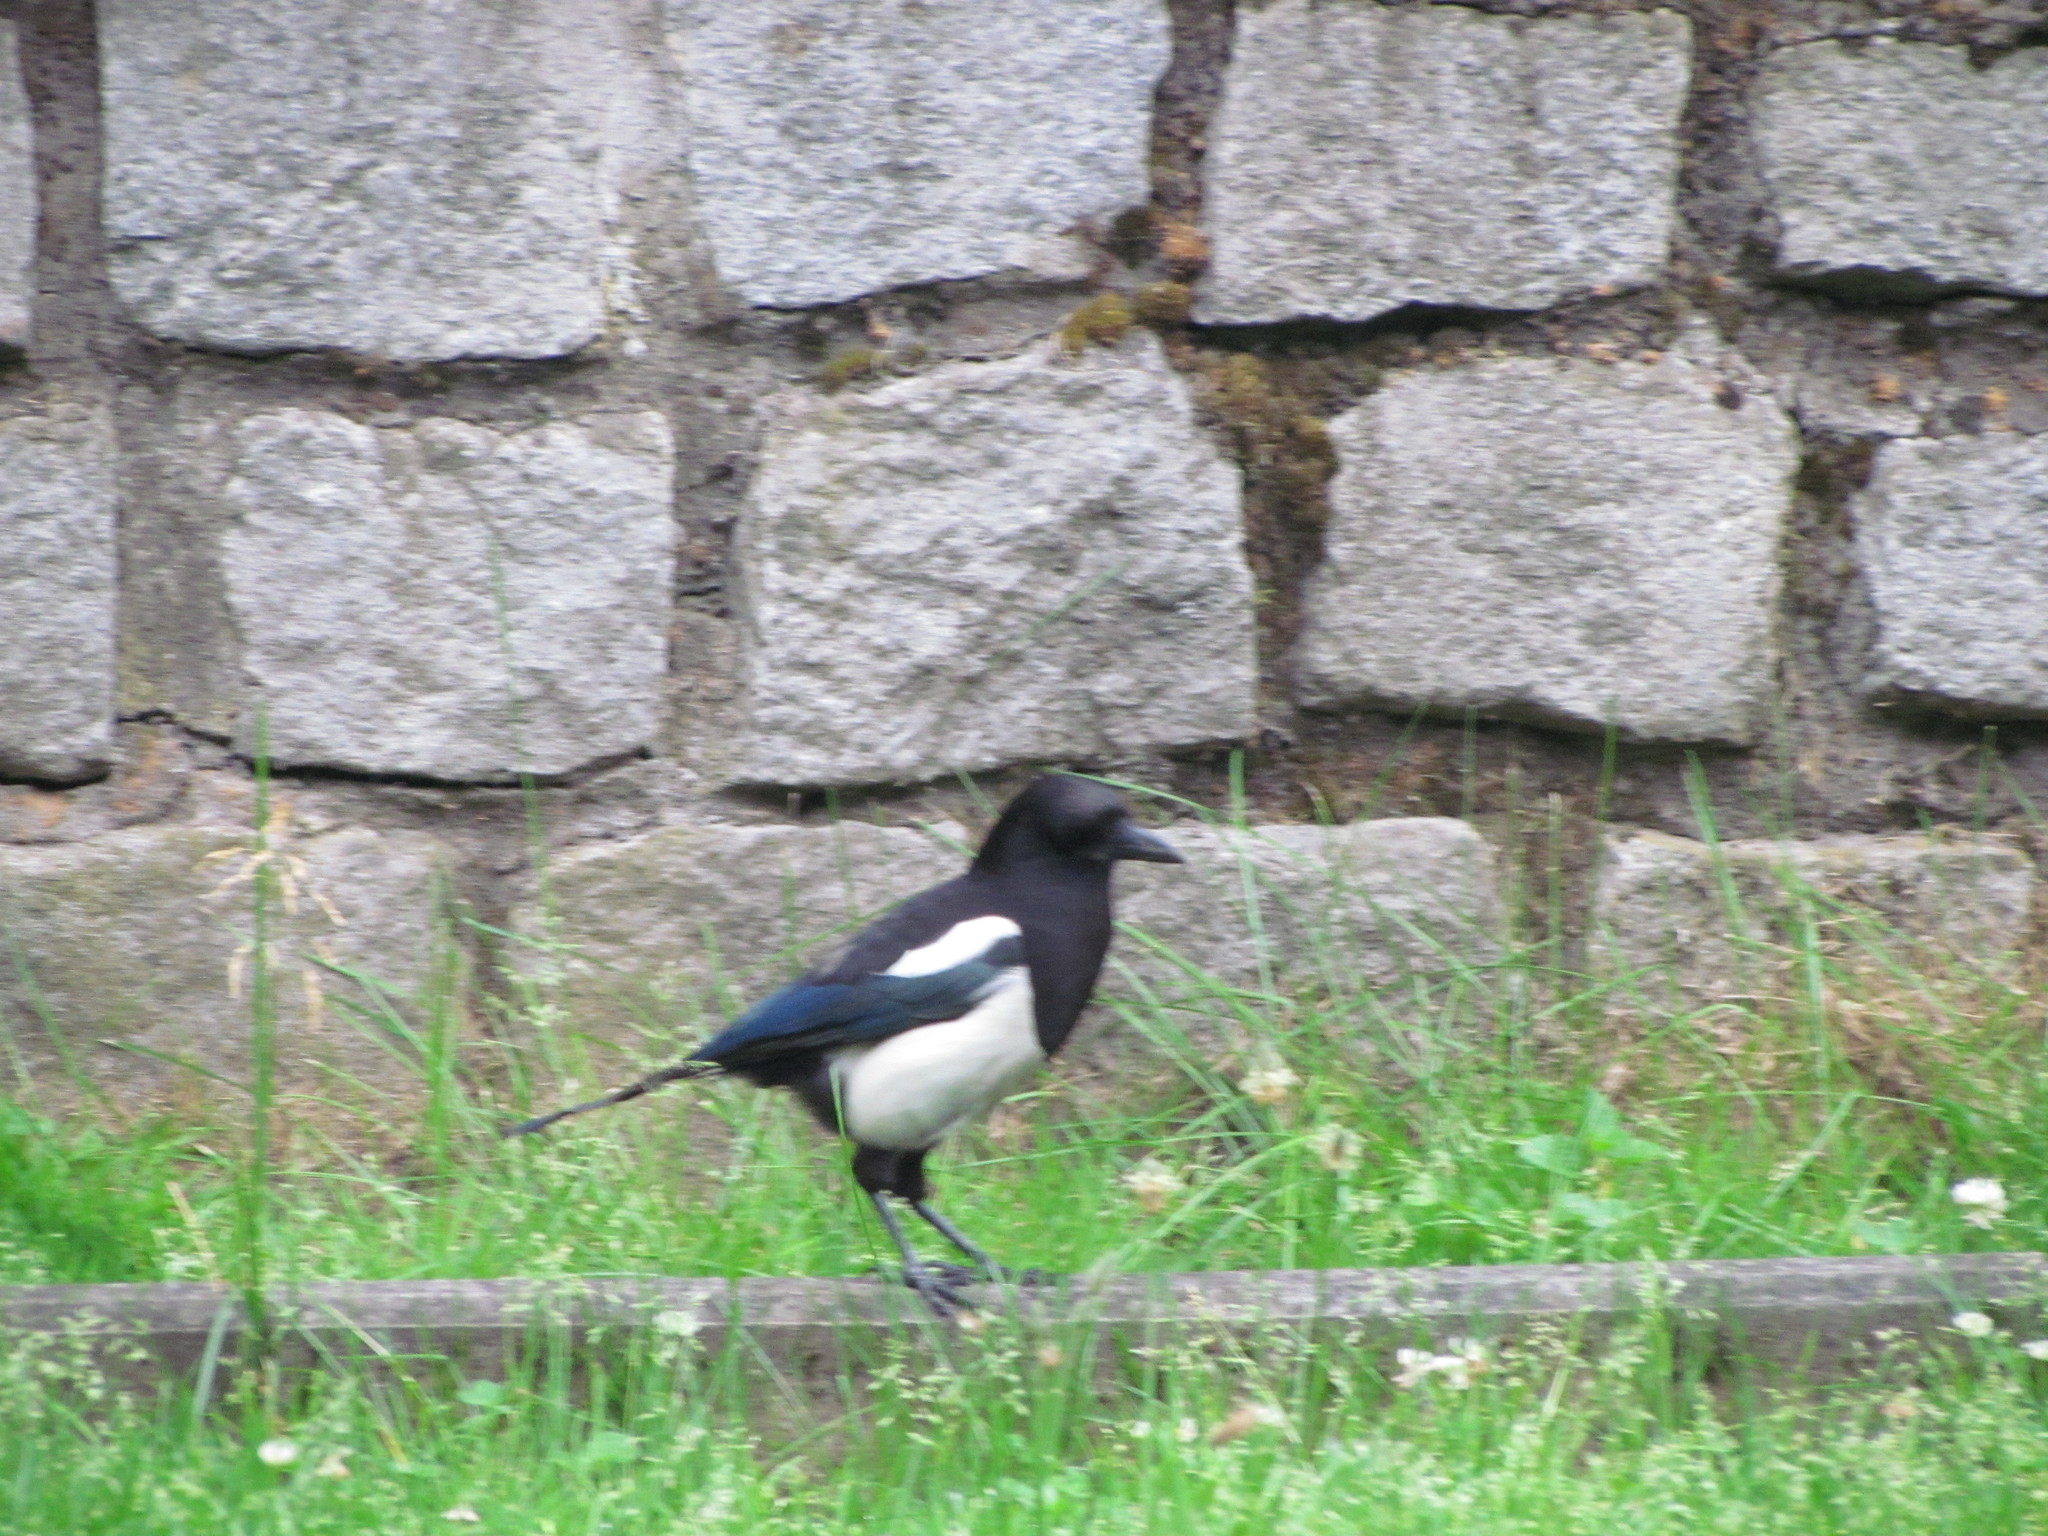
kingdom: Animalia
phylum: Chordata
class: Aves
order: Passeriformes
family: Corvidae
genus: Pica
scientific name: Pica pica
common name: Eurasian magpie
